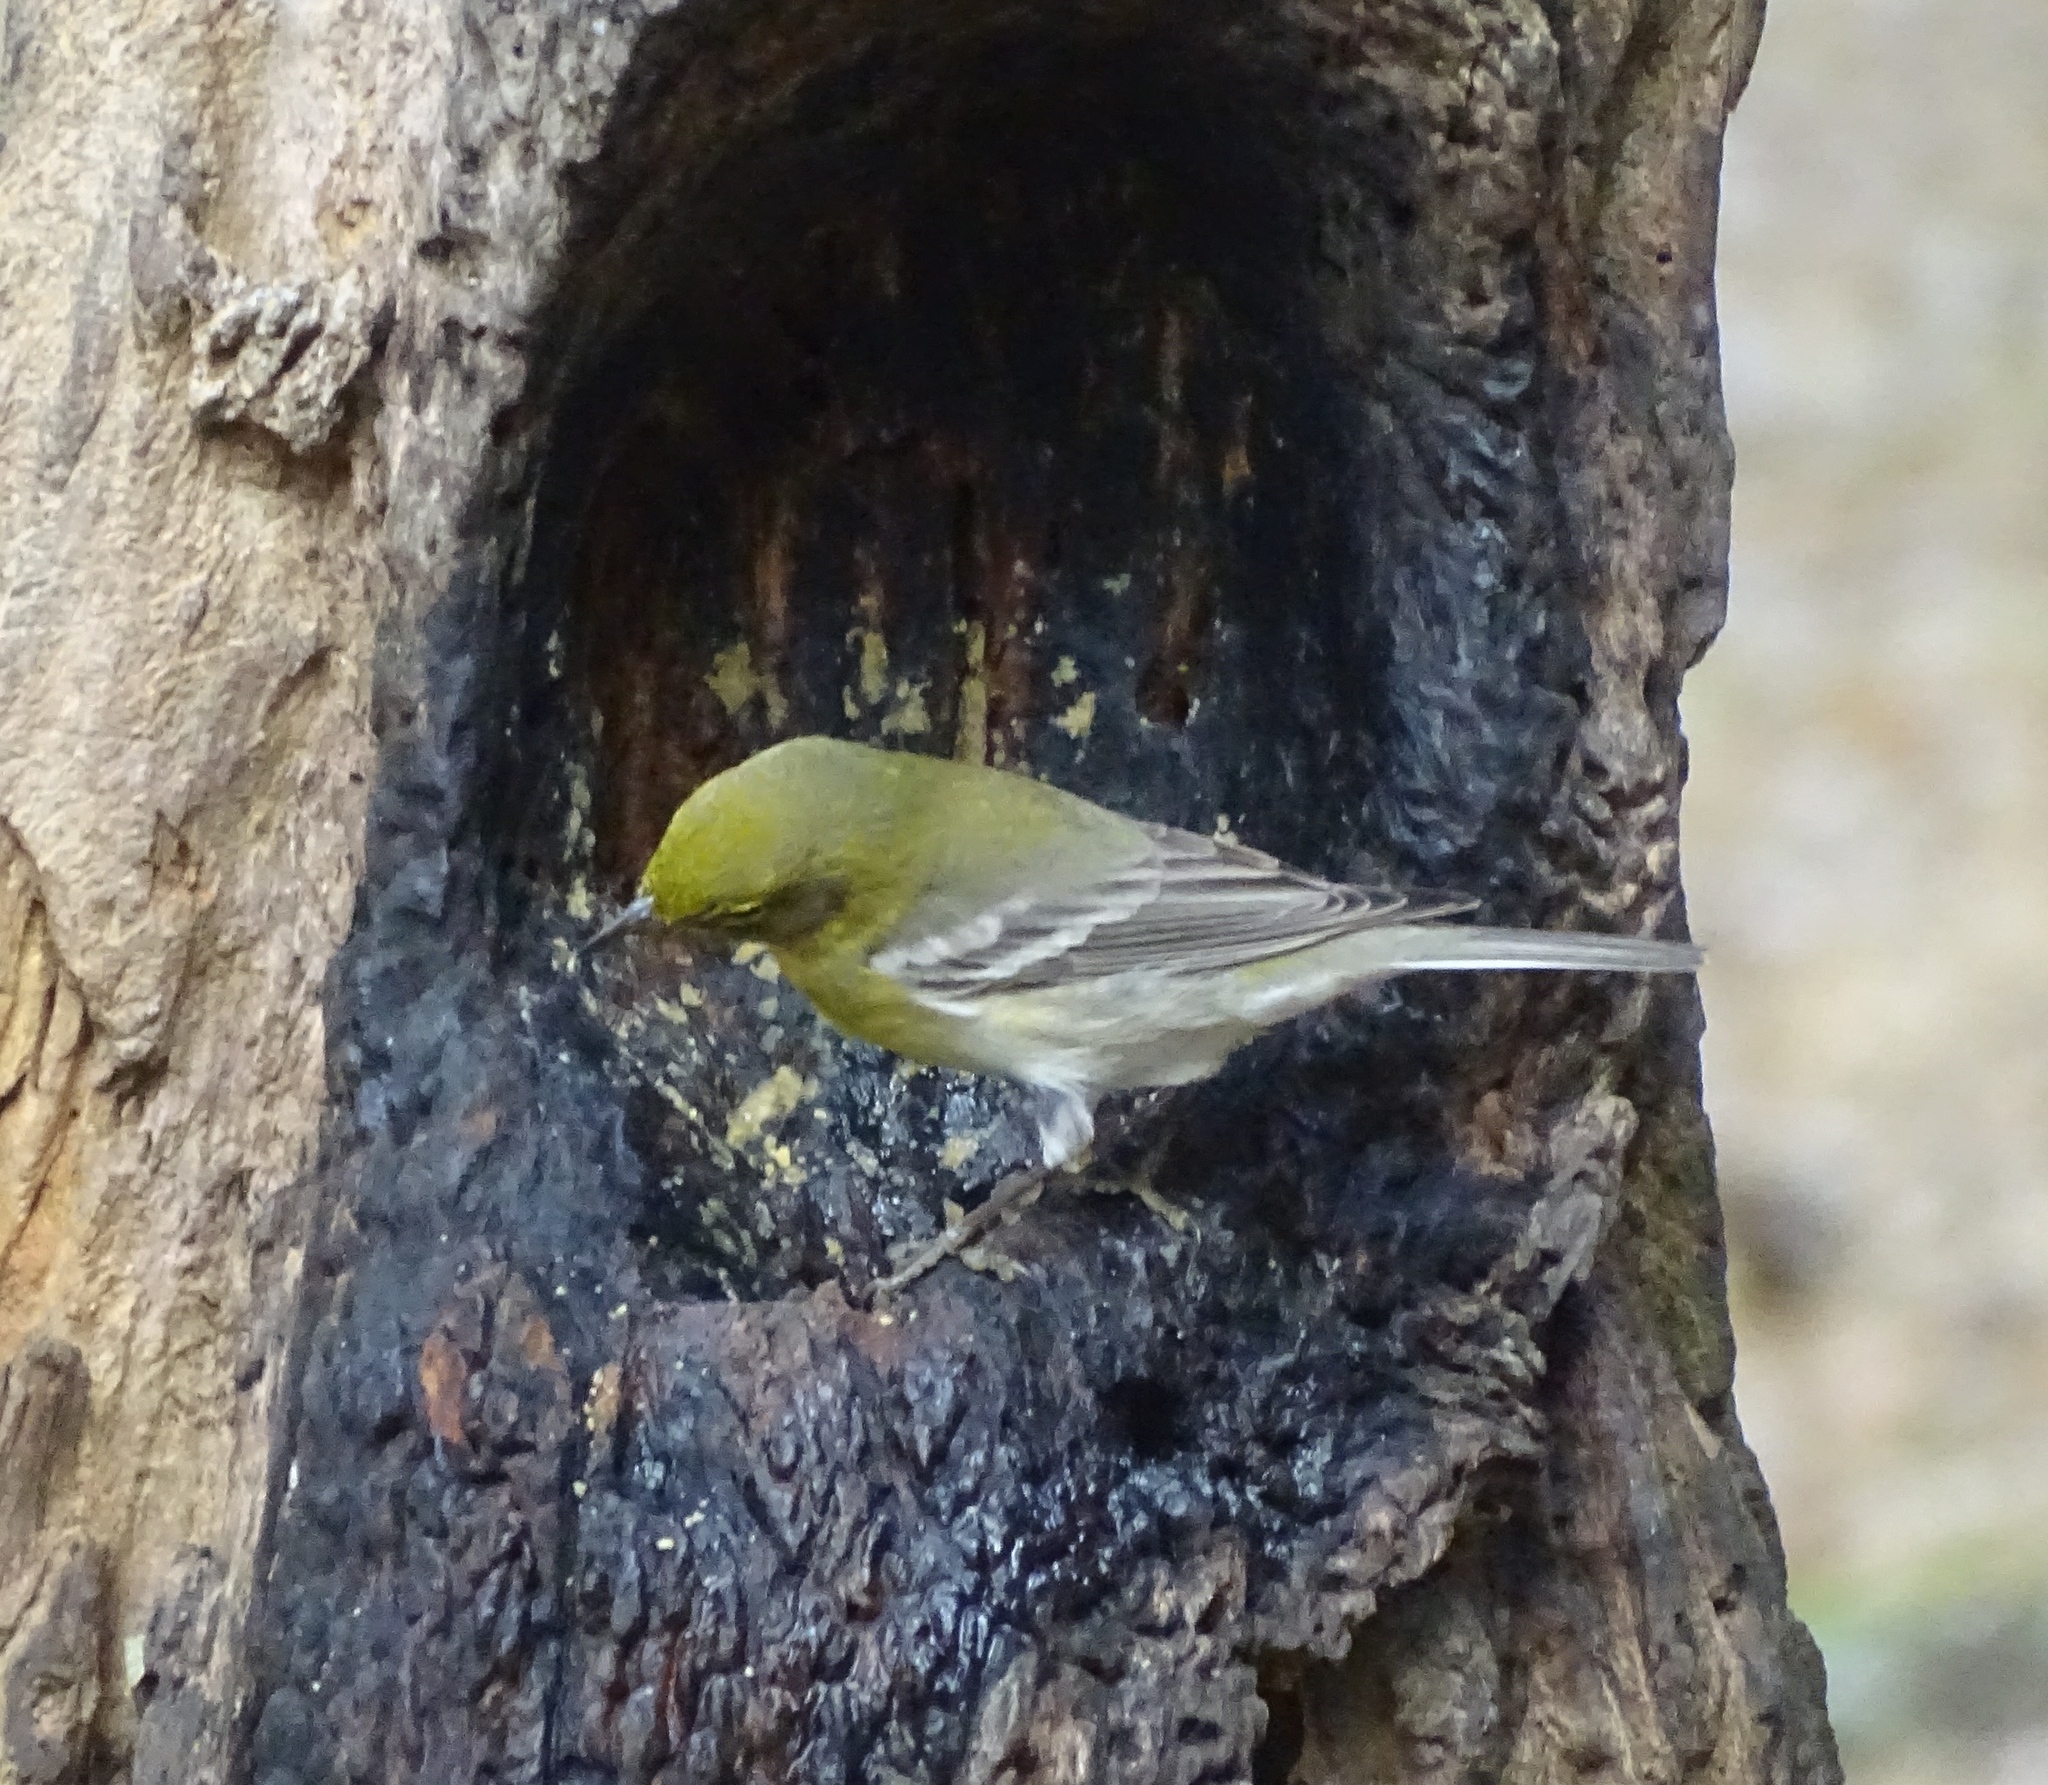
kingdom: Animalia
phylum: Chordata
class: Aves
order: Passeriformes
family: Parulidae
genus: Setophaga
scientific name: Setophaga pinus
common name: Pine warbler
